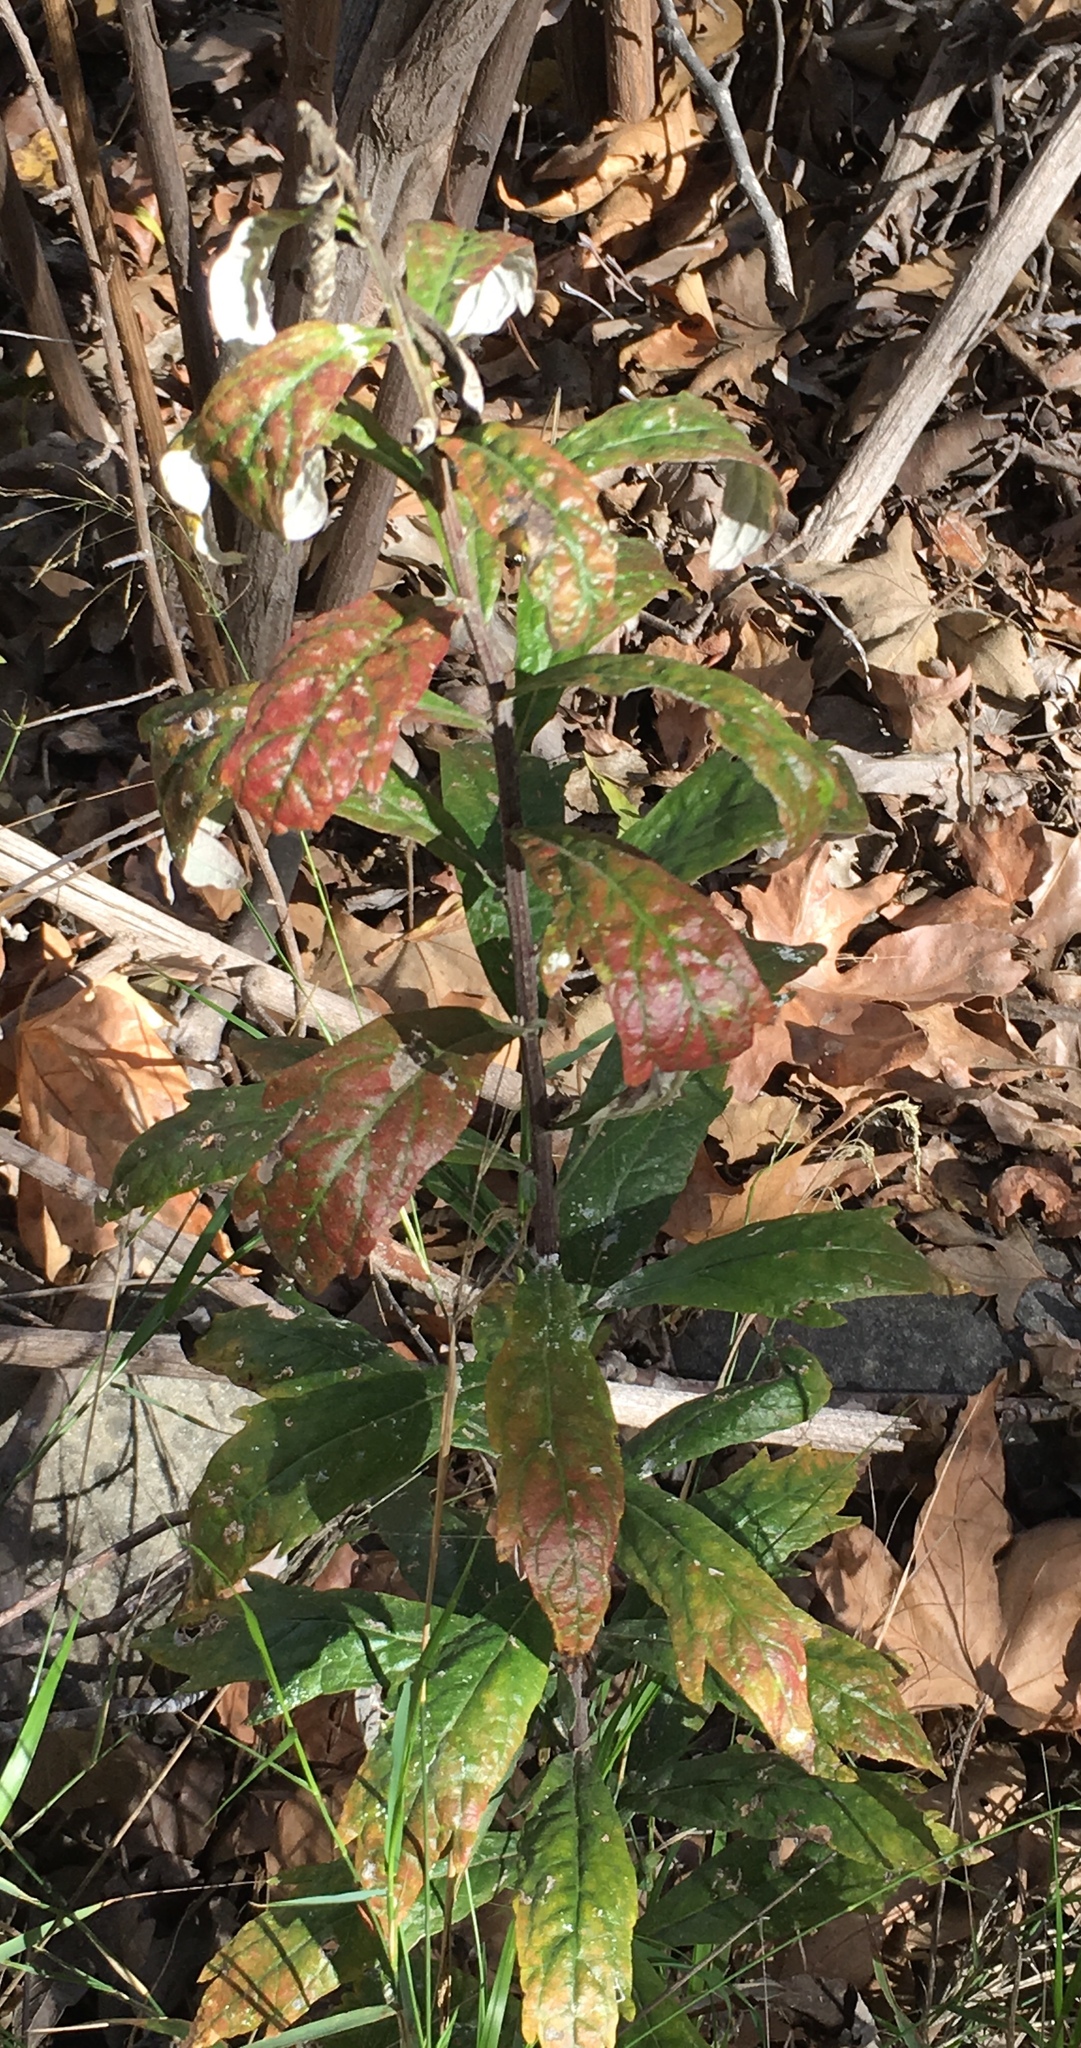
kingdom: Plantae
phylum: Tracheophyta
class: Magnoliopsida
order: Asterales
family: Asteraceae
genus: Artemisia
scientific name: Artemisia douglasiana
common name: Northwest mugwort
